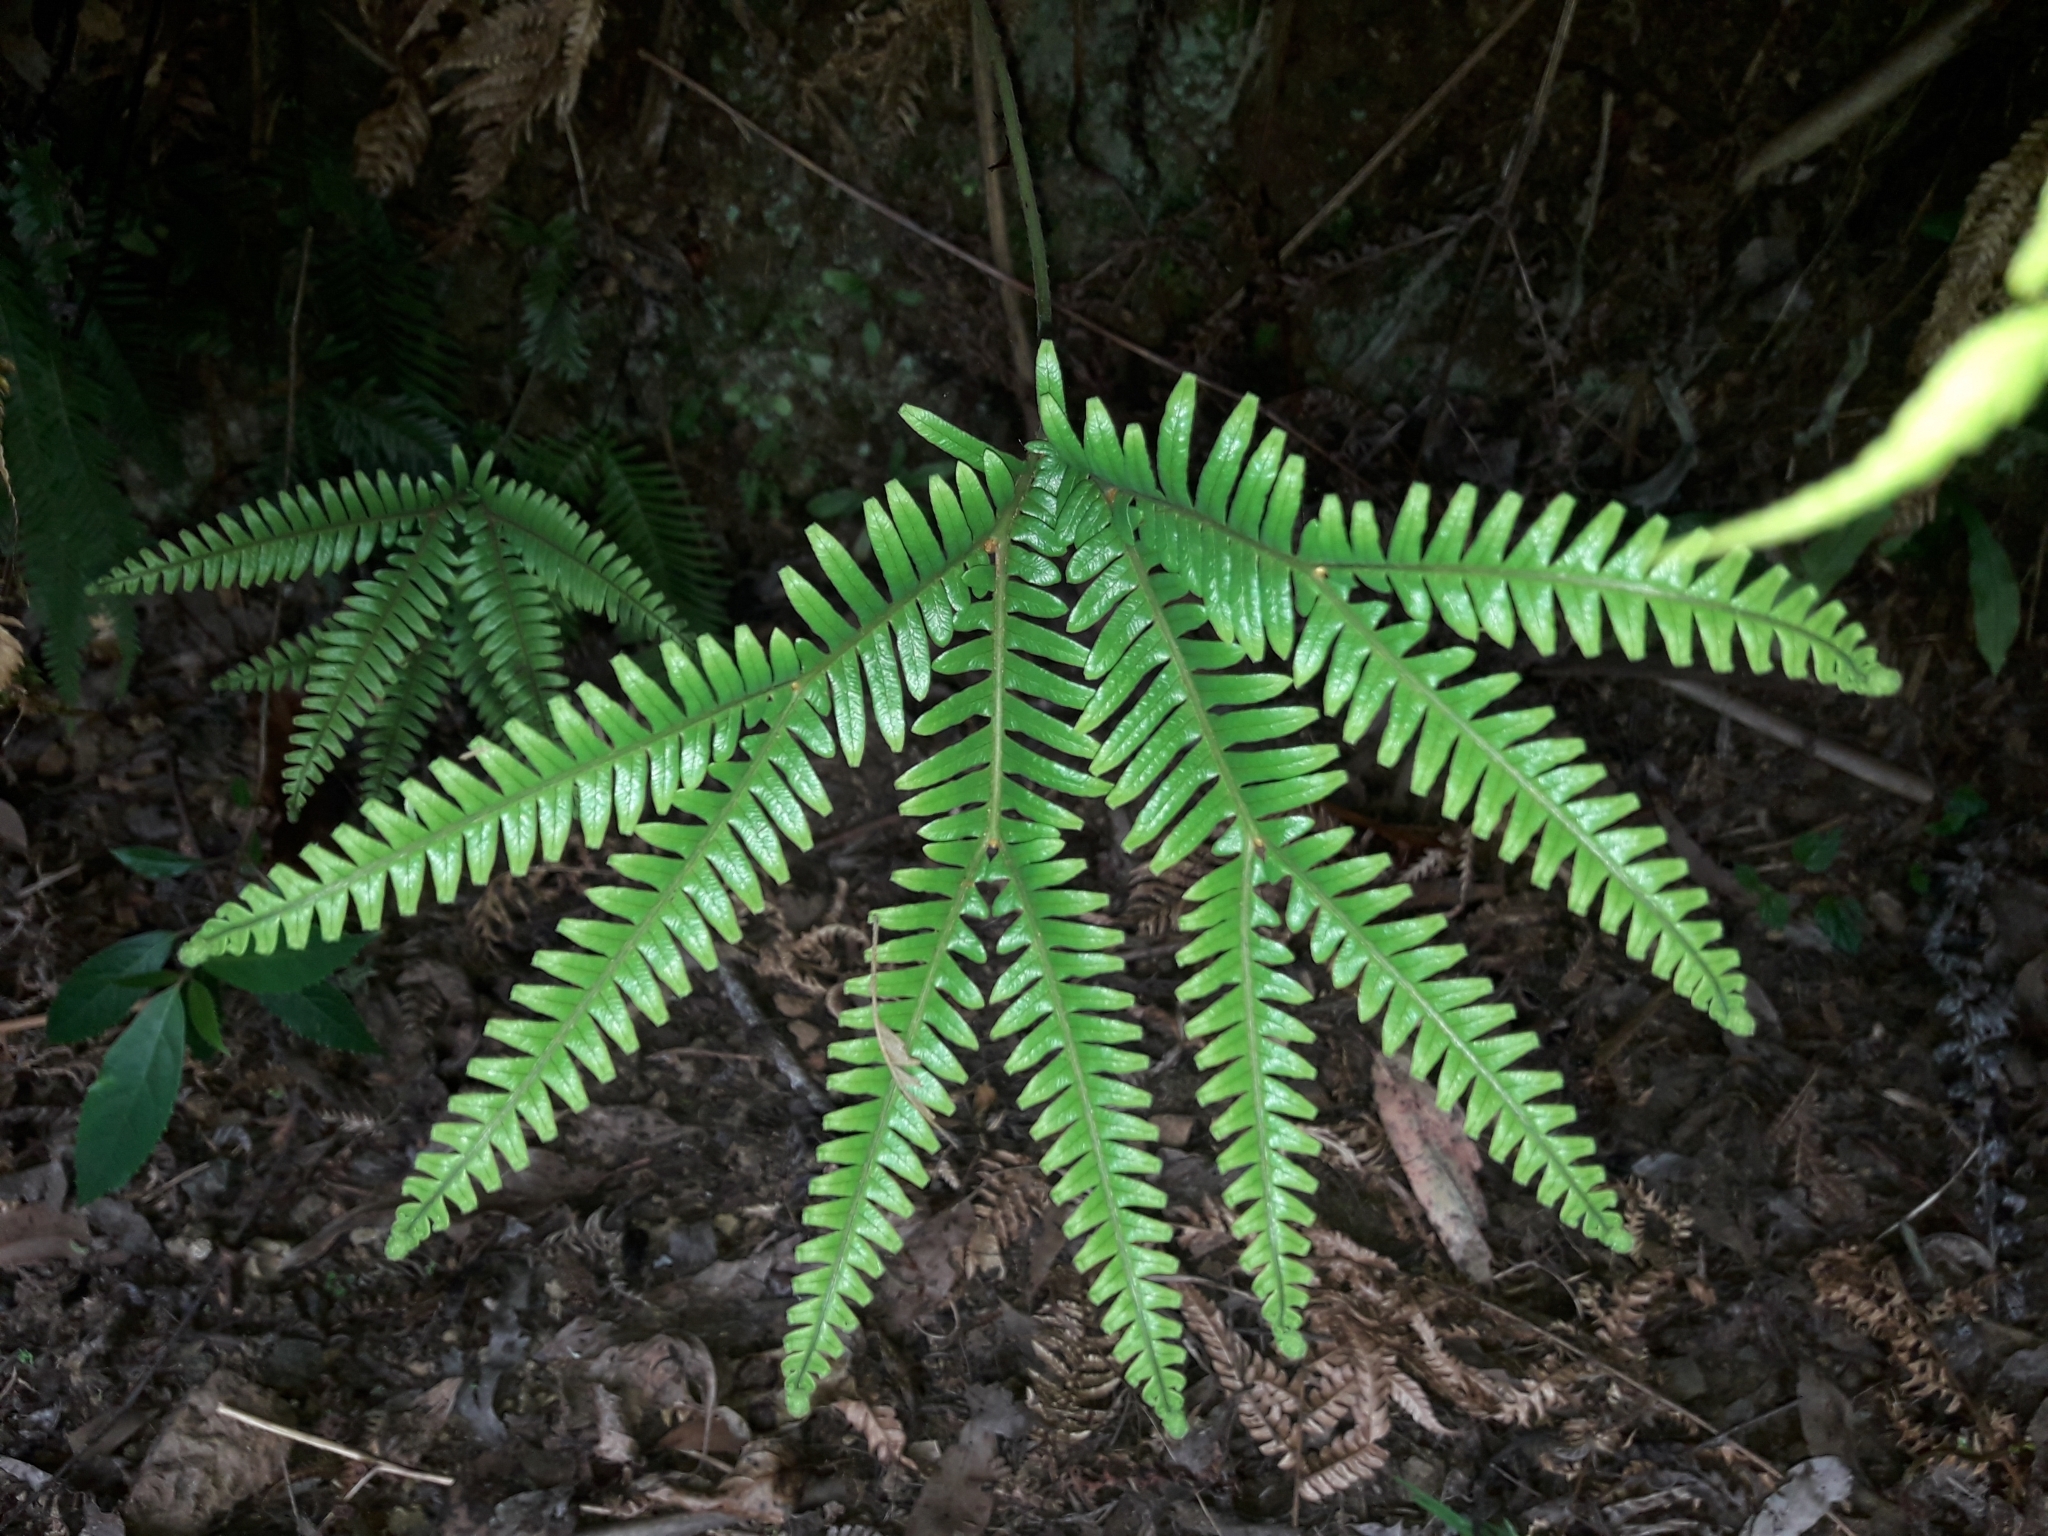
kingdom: Plantae
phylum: Tracheophyta
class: Polypodiopsida
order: Gleicheniales
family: Gleicheniaceae
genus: Sticherus
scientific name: Sticherus urceolatus
